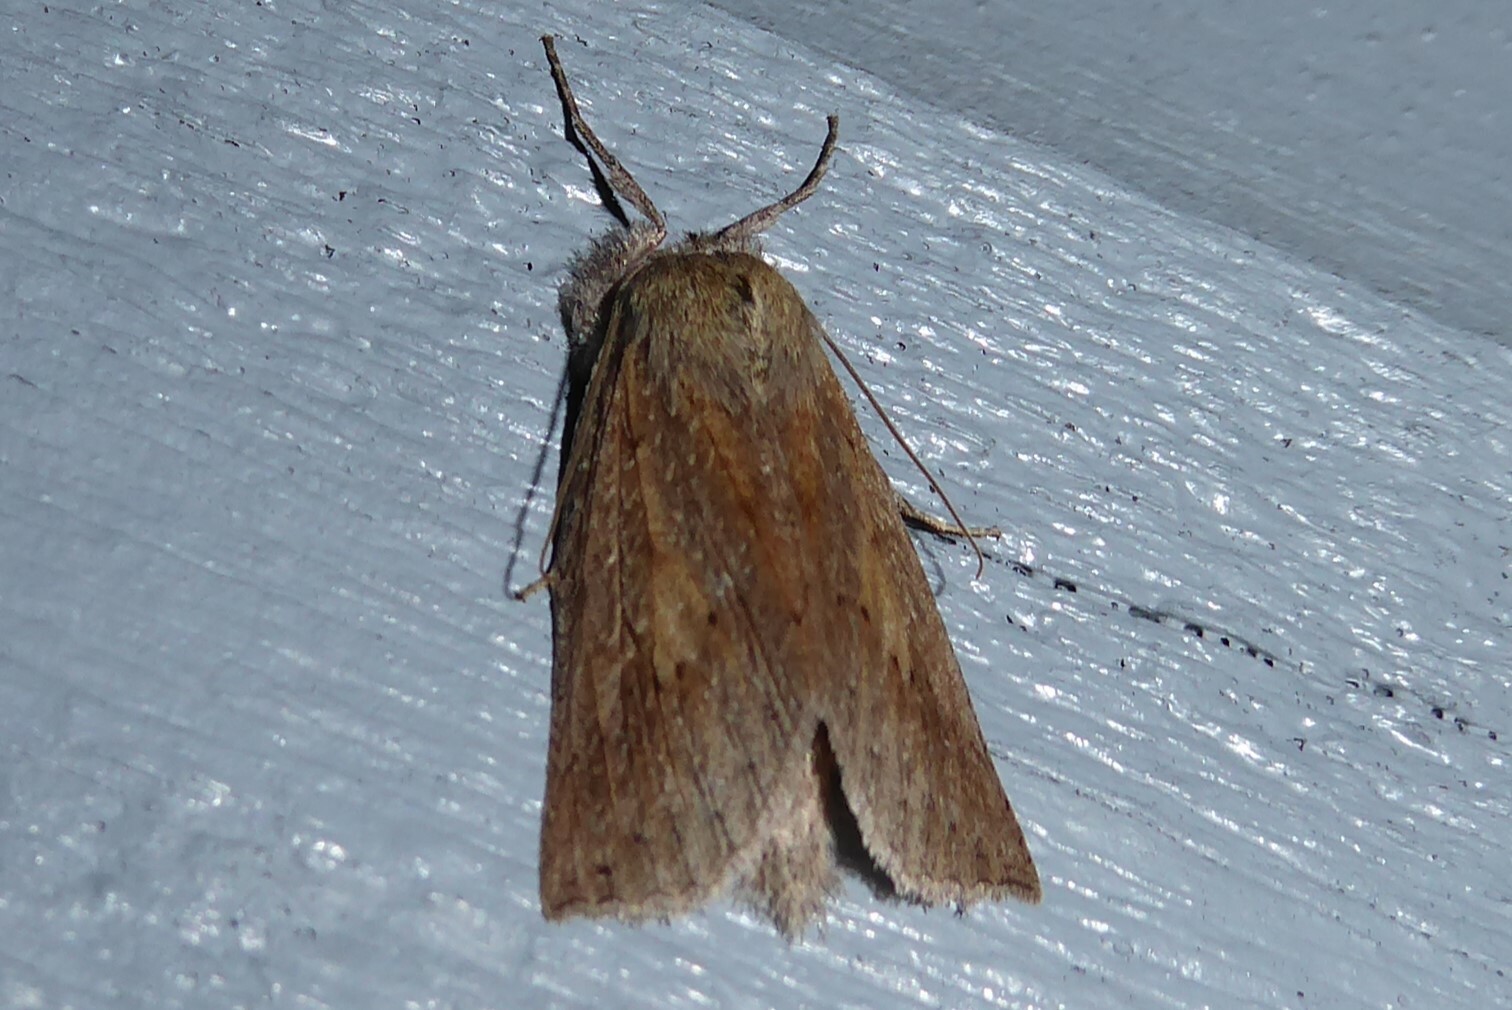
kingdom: Animalia
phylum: Arthropoda
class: Insecta
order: Lepidoptera
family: Geometridae
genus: Declana
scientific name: Declana leptomera
